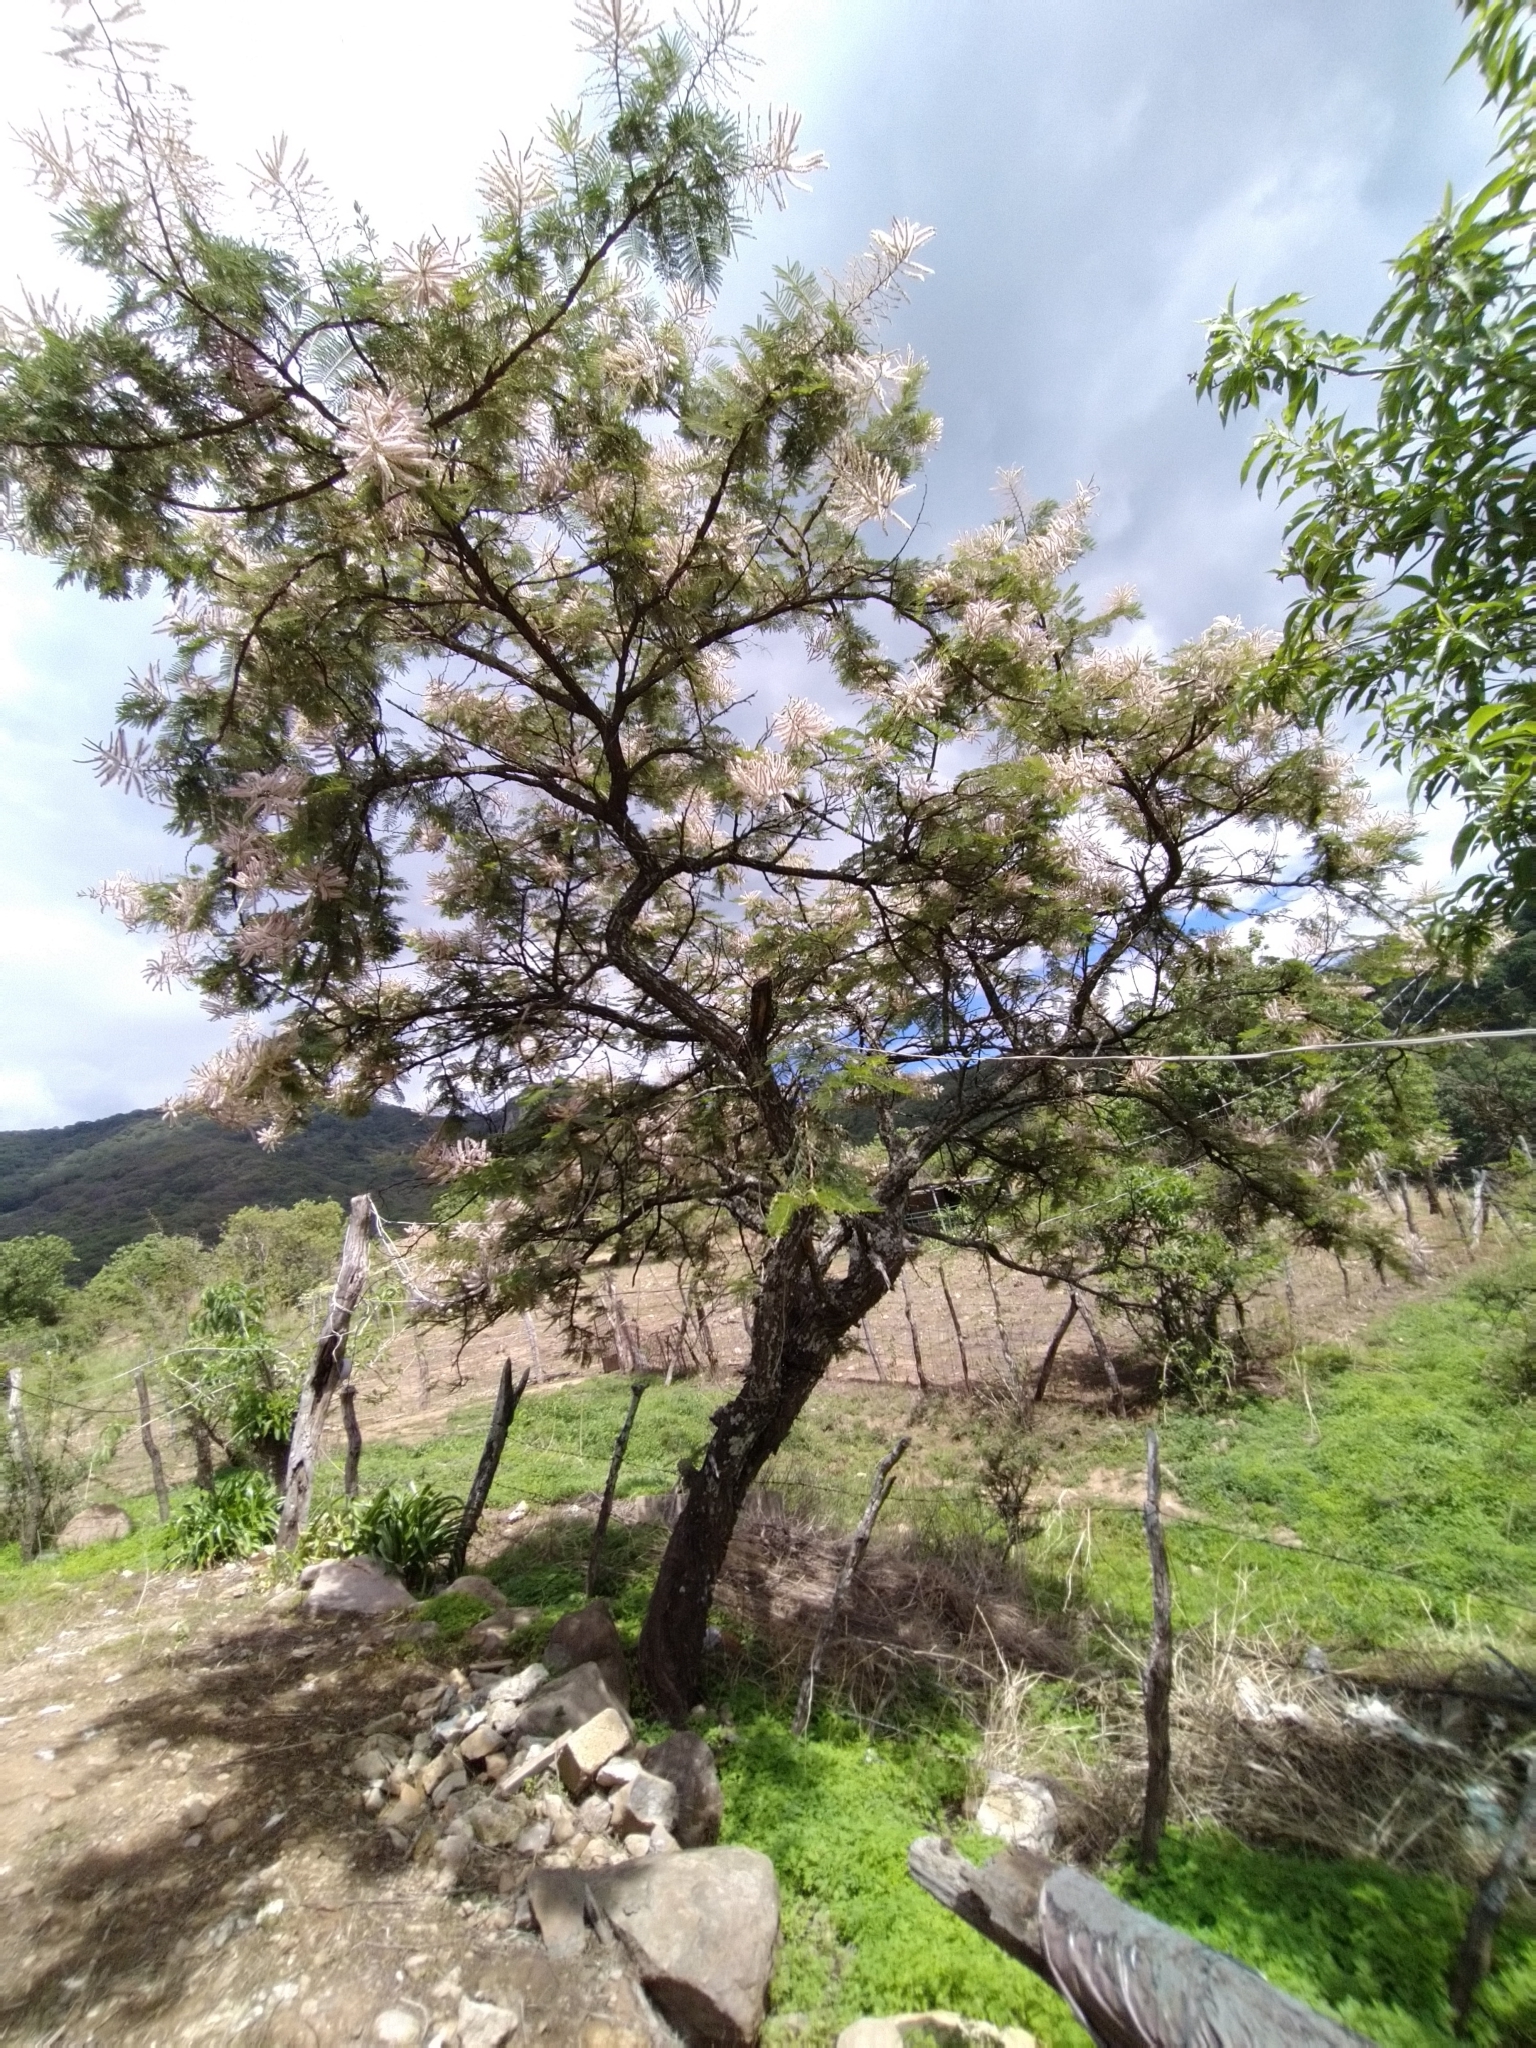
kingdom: Plantae
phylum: Tracheophyta
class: Magnoliopsida
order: Fabales
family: Fabaceae
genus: Mimosa
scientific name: Mimosa benthamii
